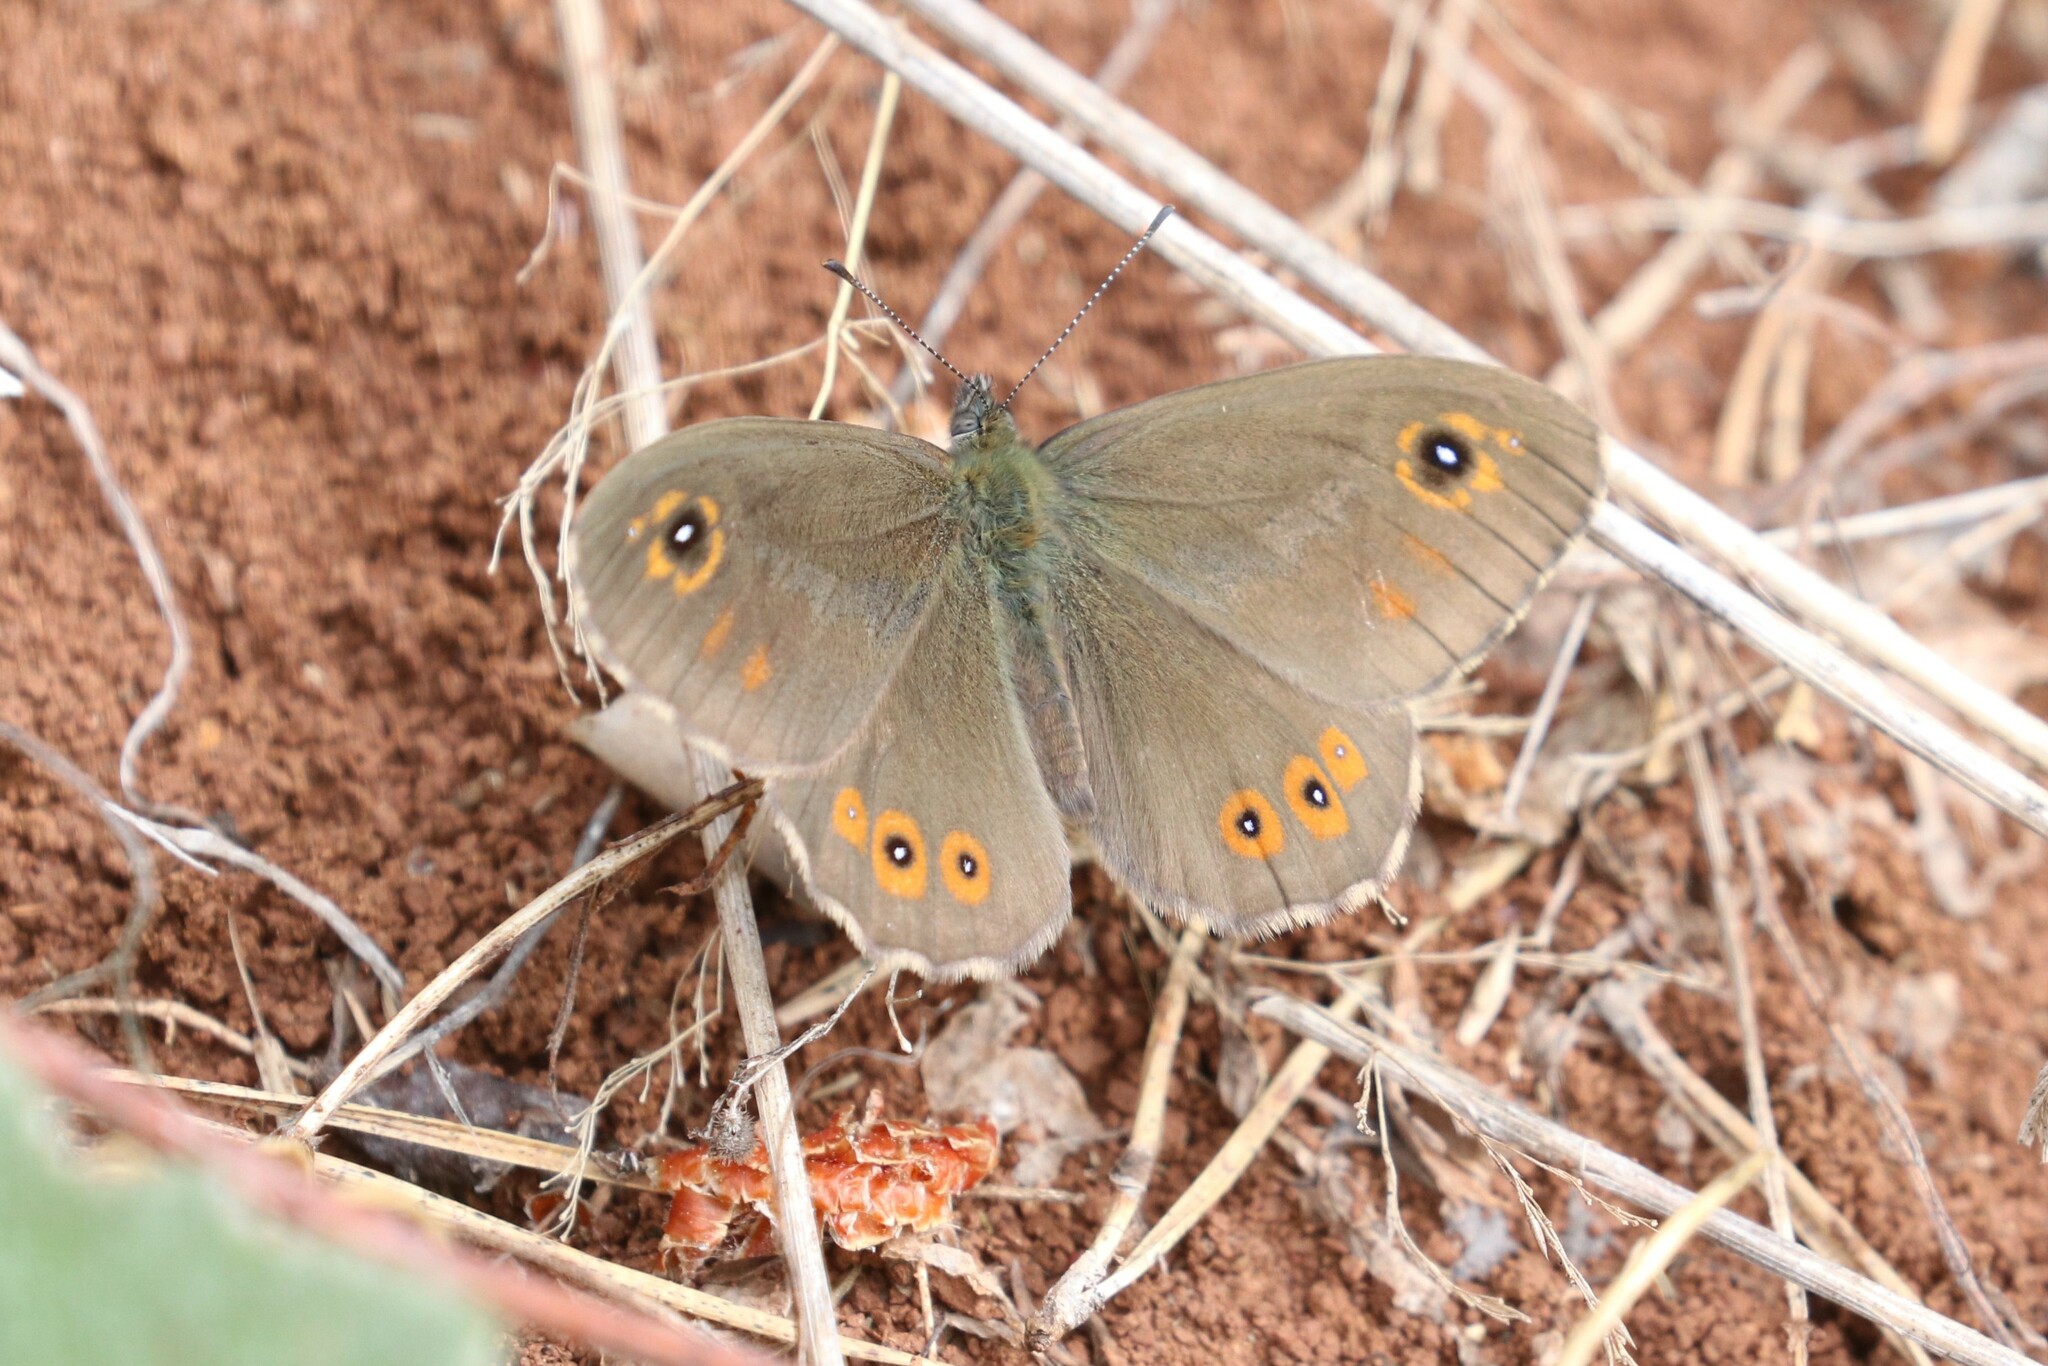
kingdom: Animalia
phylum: Arthropoda
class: Insecta
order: Lepidoptera
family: Nymphalidae
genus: Pararge
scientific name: Pararge Lasiommata maera
